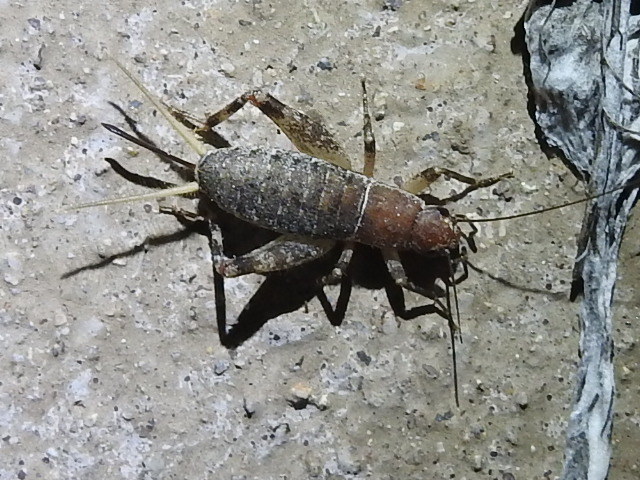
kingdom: Animalia
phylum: Arthropoda
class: Insecta
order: Orthoptera
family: Mogoplistidae
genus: Hoplosphyrum
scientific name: Hoplosphyrum boreale
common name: Long-winged scaly cricket
